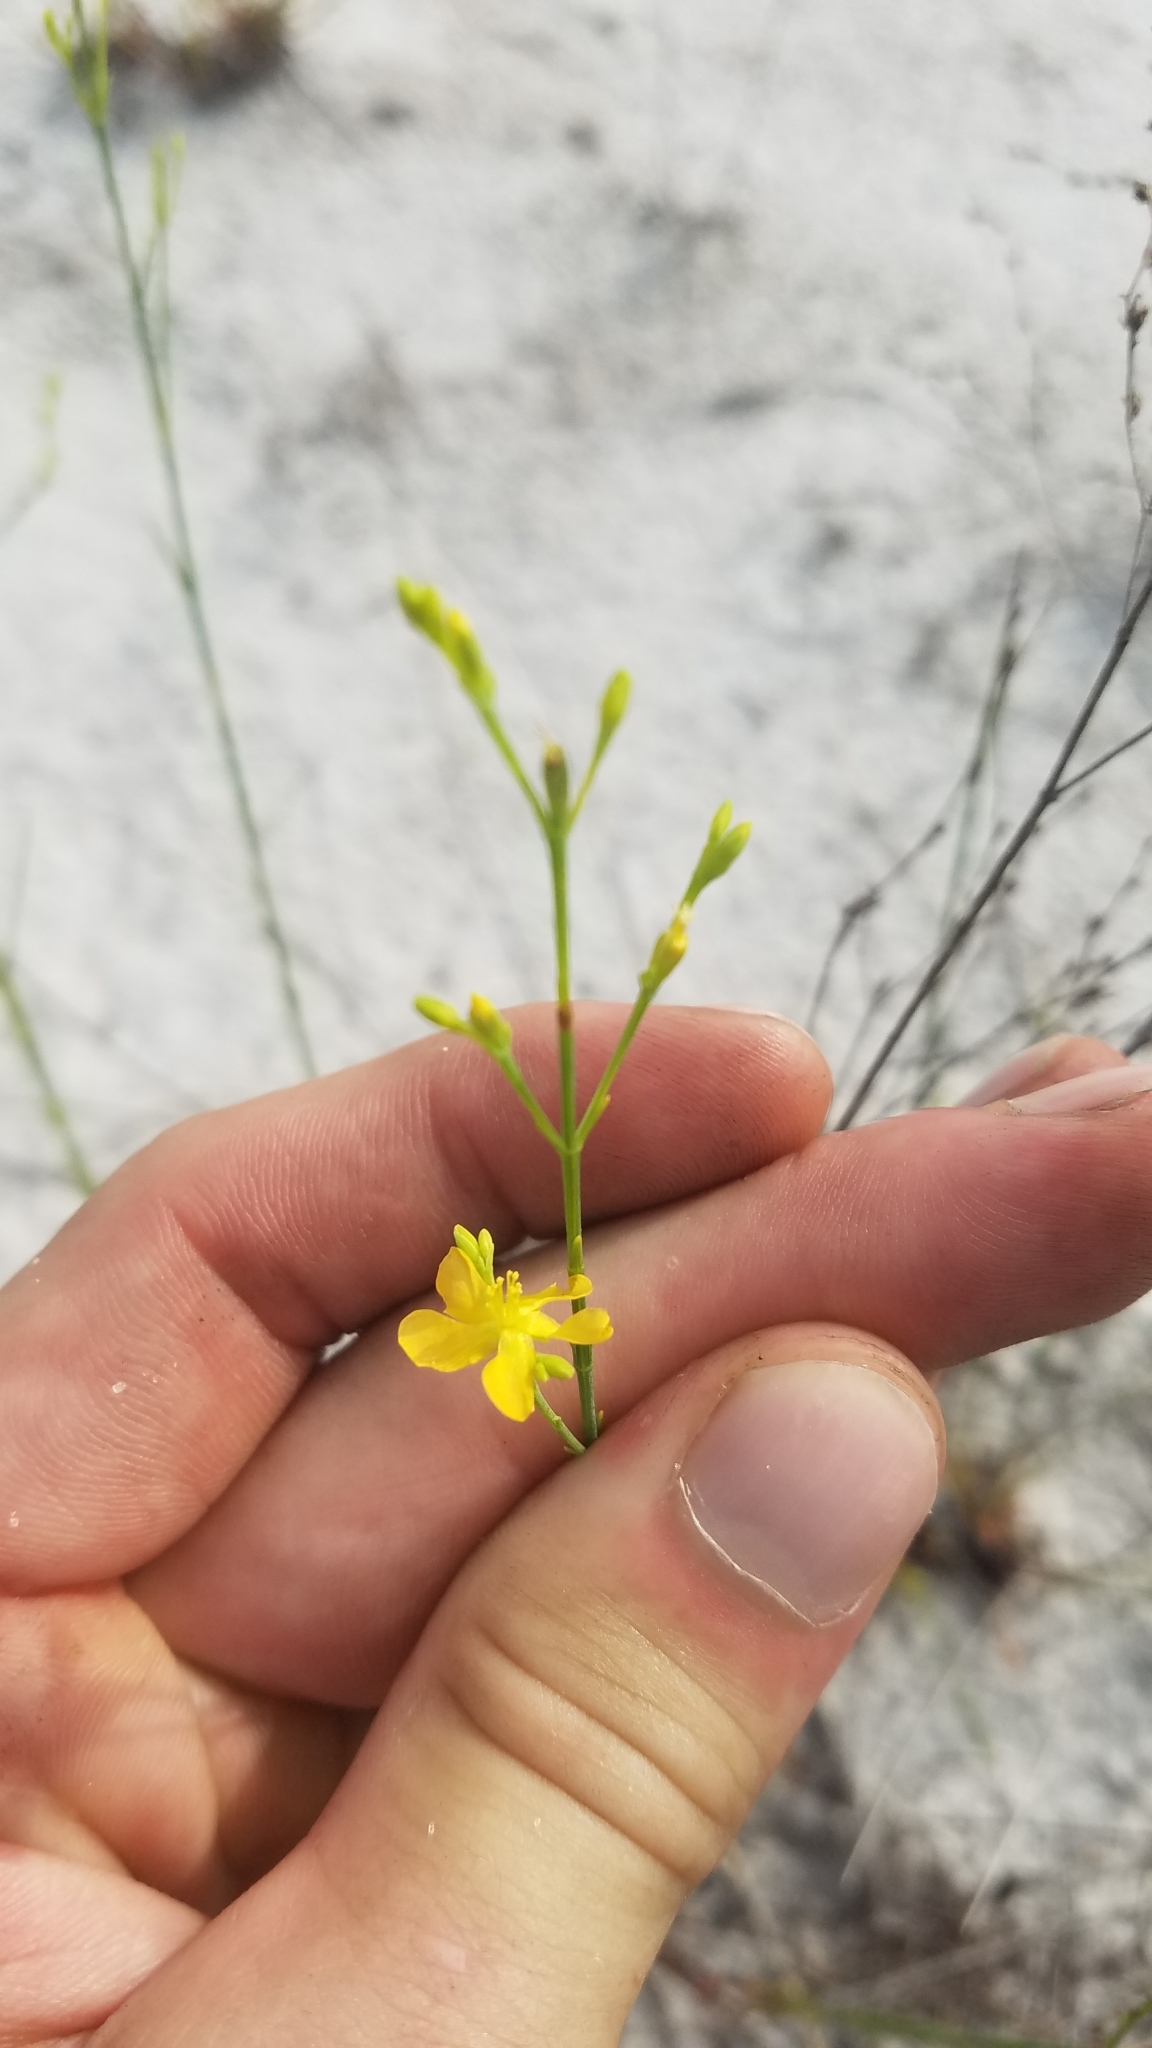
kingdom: Plantae
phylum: Tracheophyta
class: Magnoliopsida
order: Malpighiales
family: Hypericaceae
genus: Hypericum
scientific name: Hypericum cumulicola
